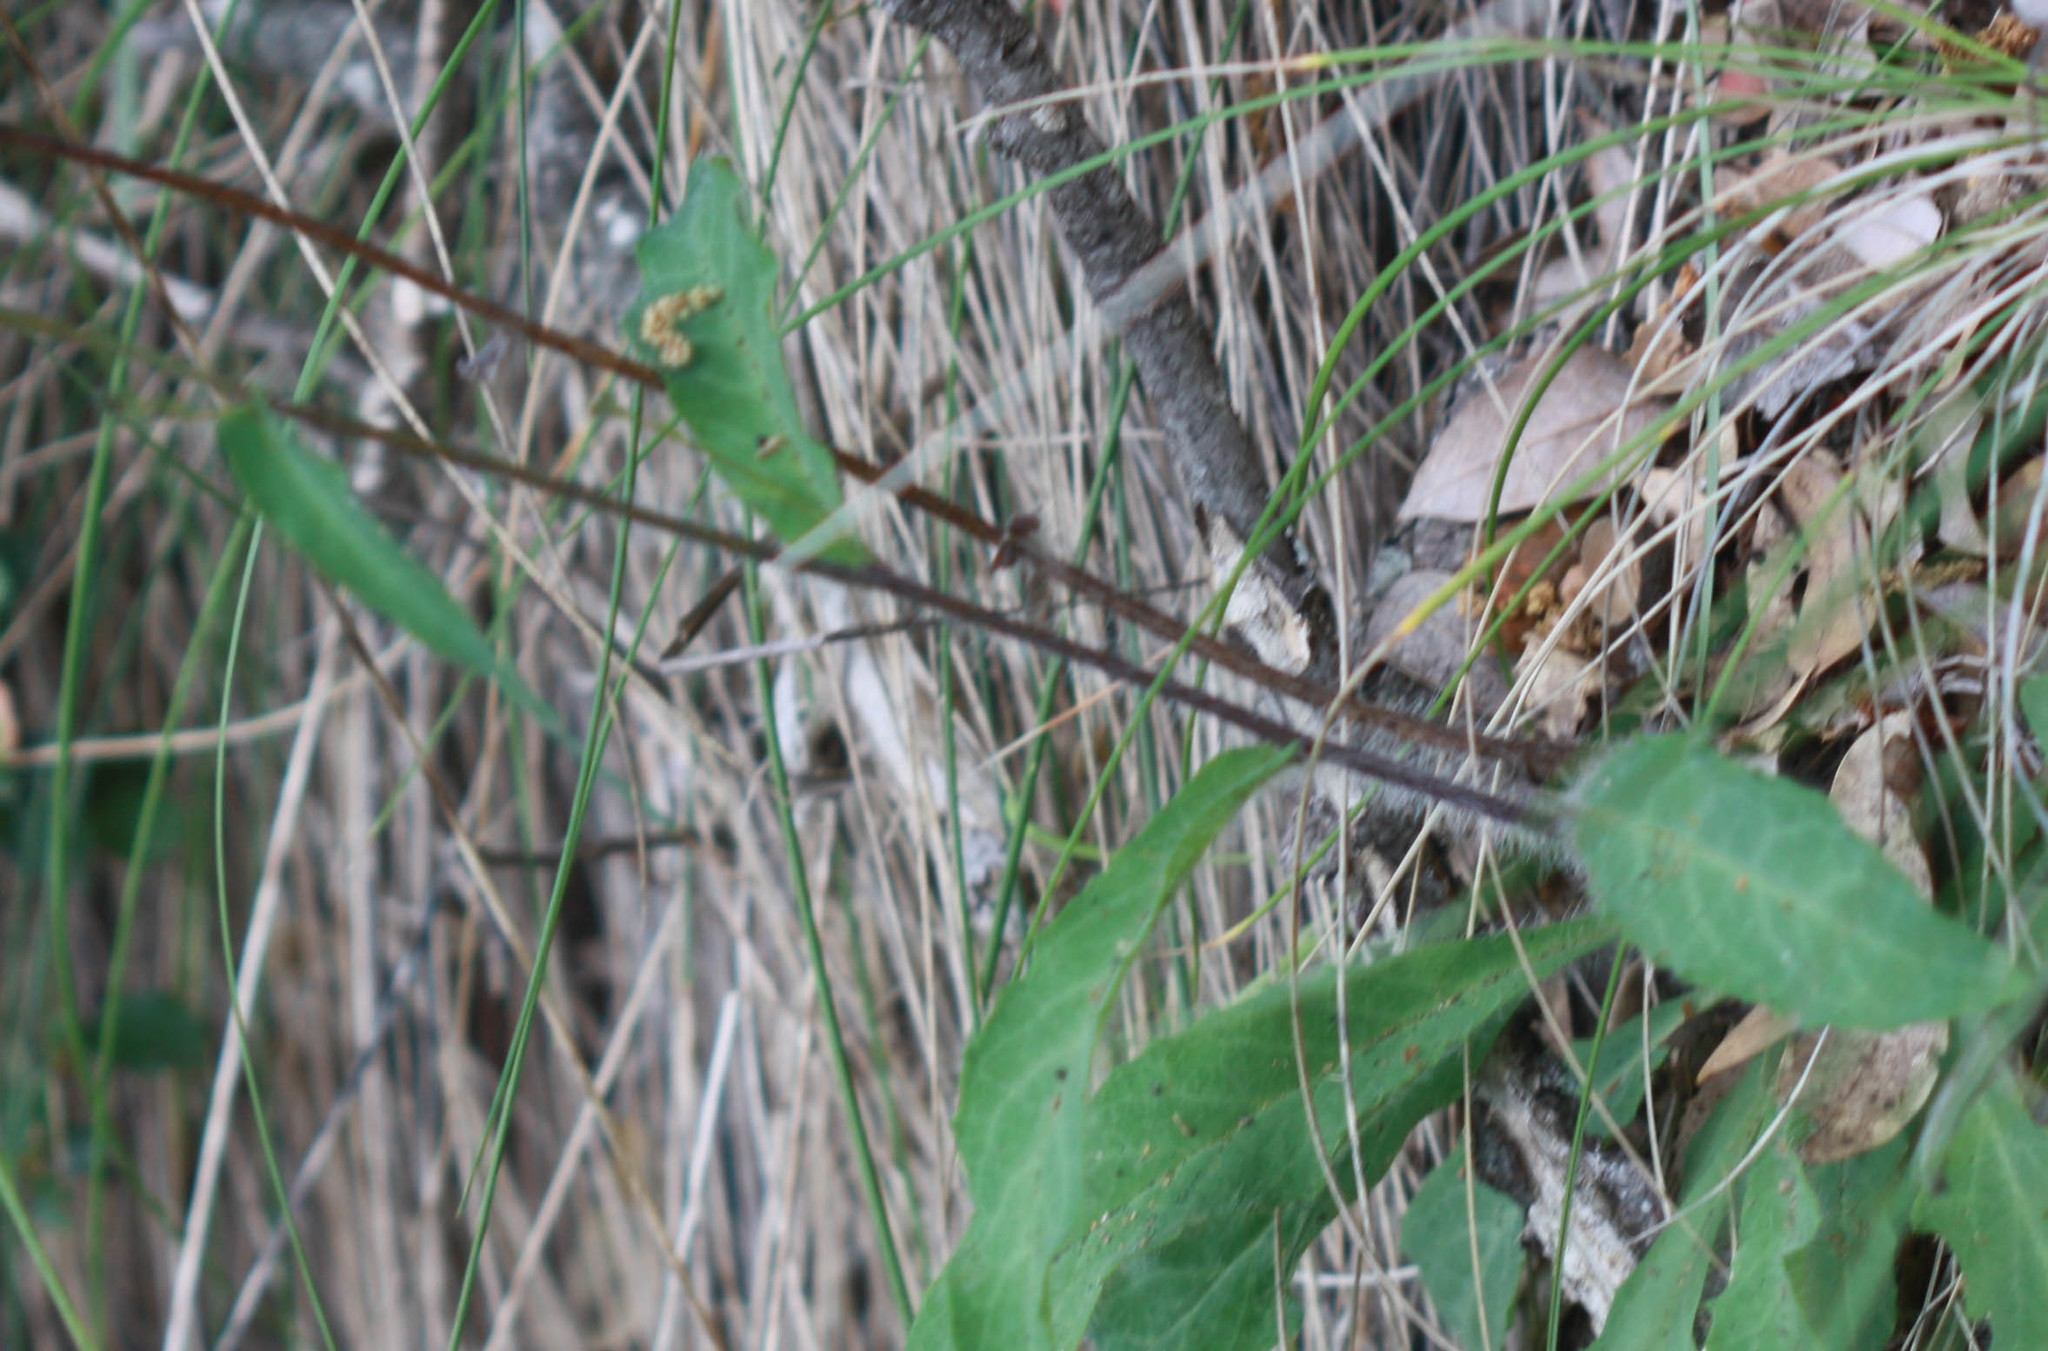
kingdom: Plantae
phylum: Tracheophyta
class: Magnoliopsida
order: Asterales
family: Asteraceae
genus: Hieracium
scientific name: Hieracium albiflorum
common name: White hawkweed
